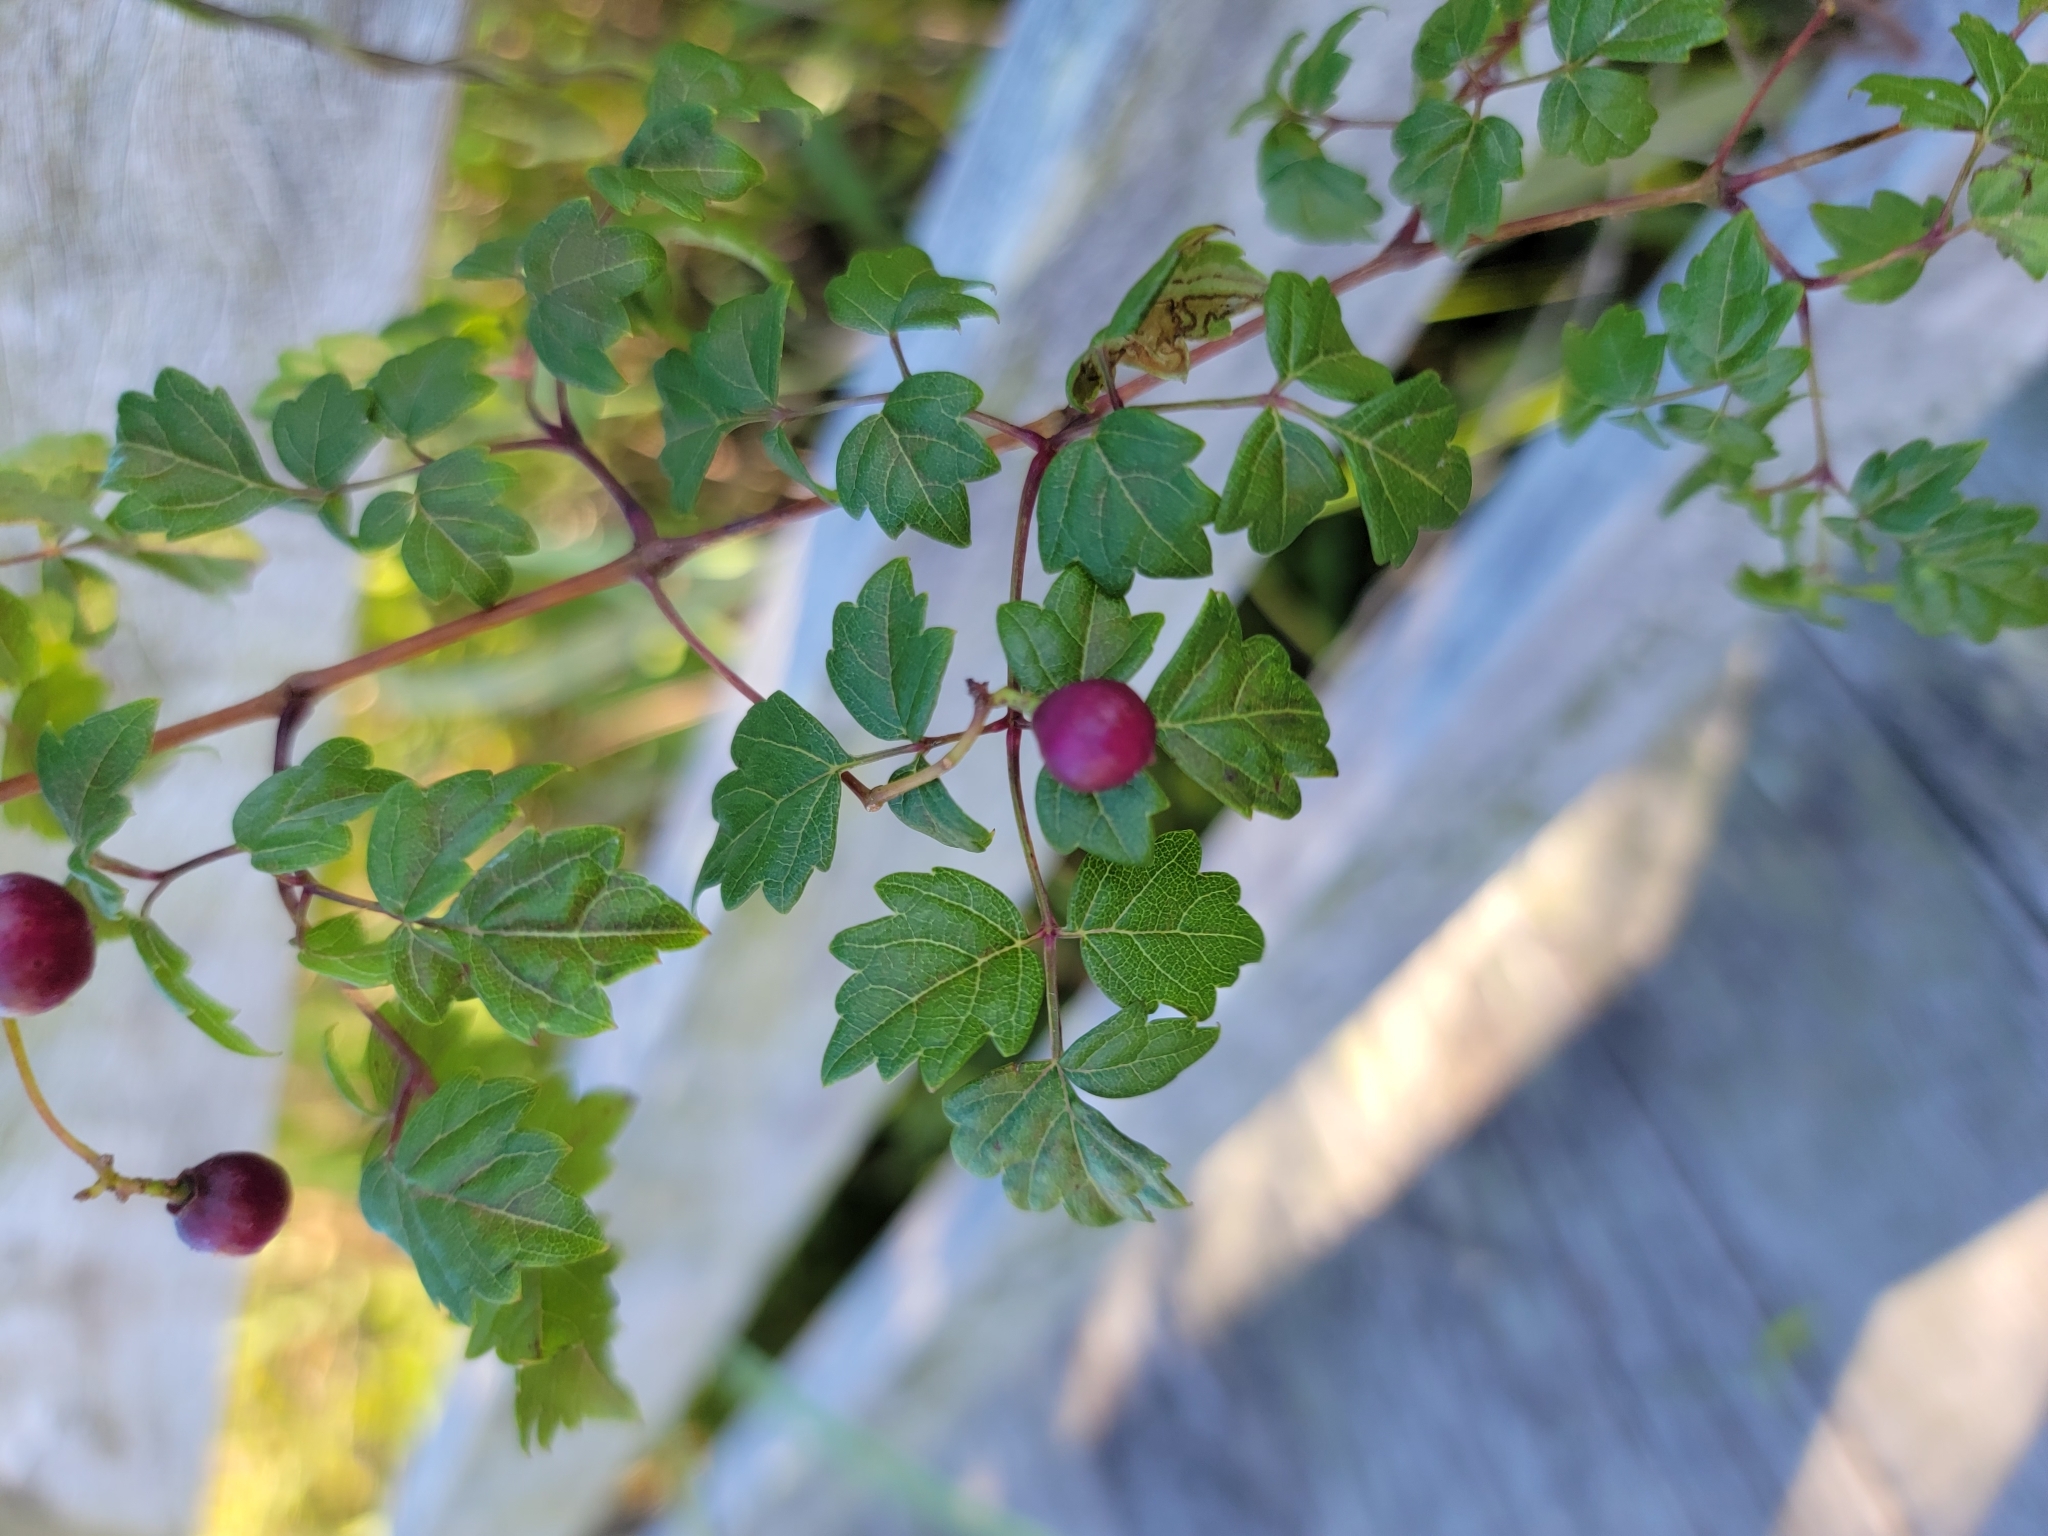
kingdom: Plantae
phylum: Tracheophyta
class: Magnoliopsida
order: Vitales
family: Vitaceae
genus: Nekemias
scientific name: Nekemias arborea
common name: Peppervine
